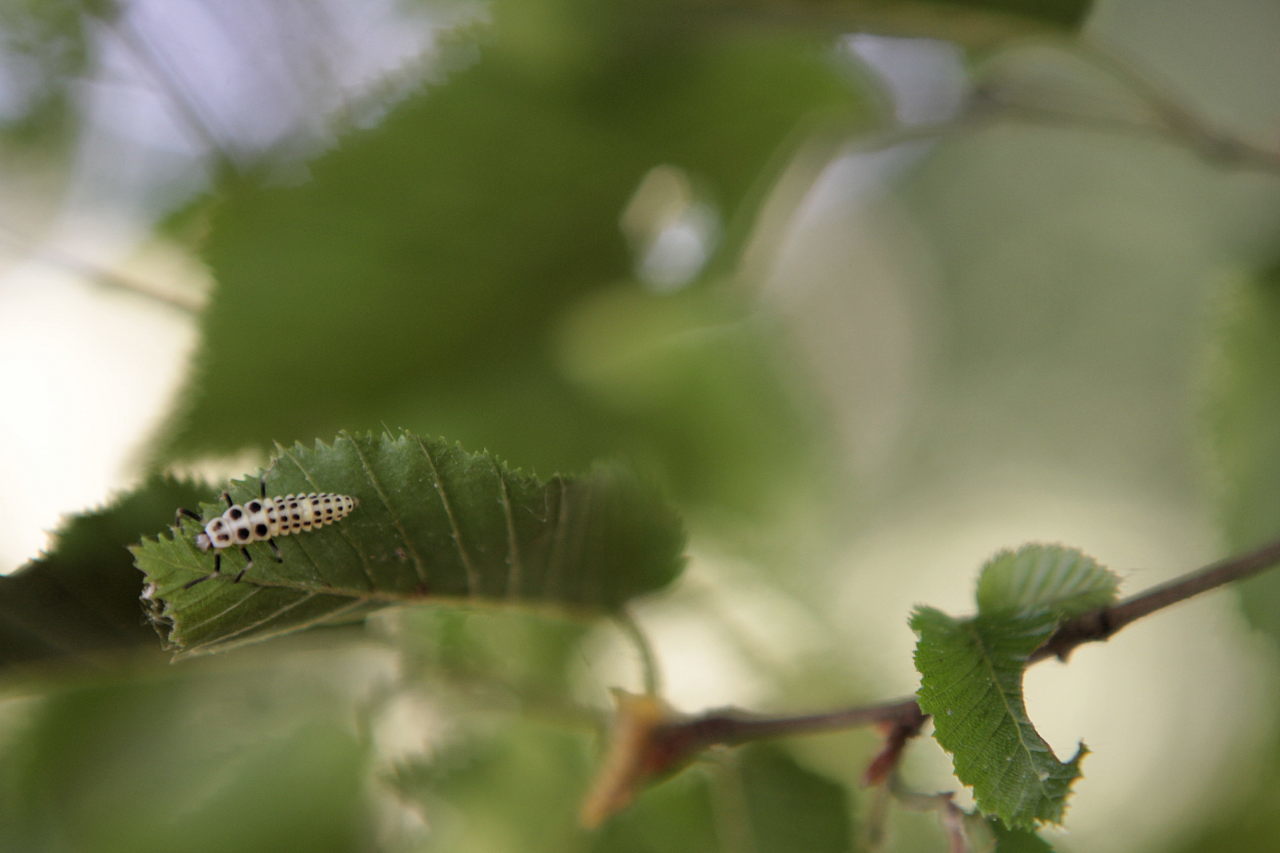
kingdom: Animalia
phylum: Arthropoda
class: Insecta
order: Coleoptera
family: Coccinellidae
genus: Calvia
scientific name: Calvia decemguttata
